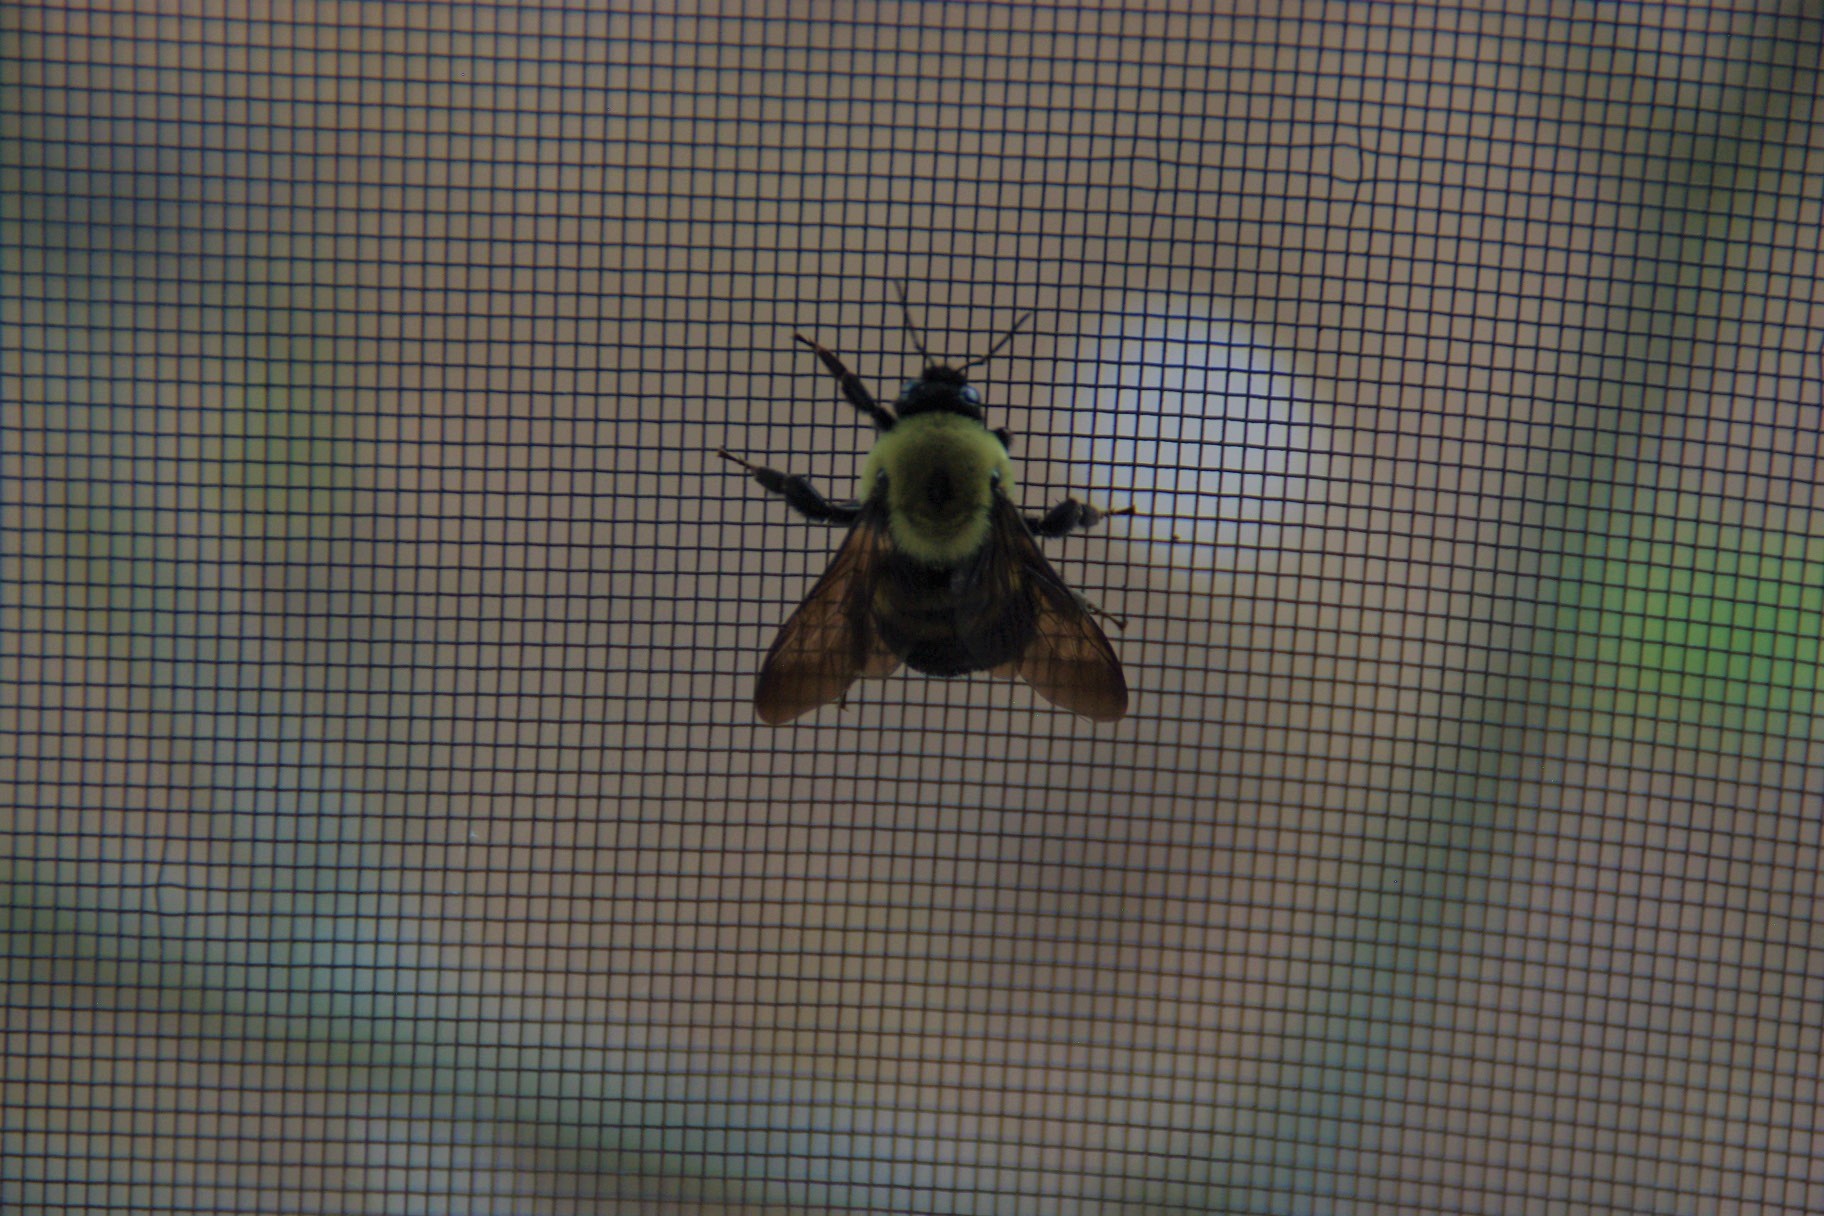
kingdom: Animalia
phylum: Arthropoda
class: Insecta
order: Hymenoptera
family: Apidae
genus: Bombus
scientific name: Bombus griseocollis
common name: Brown-belted bumble bee
